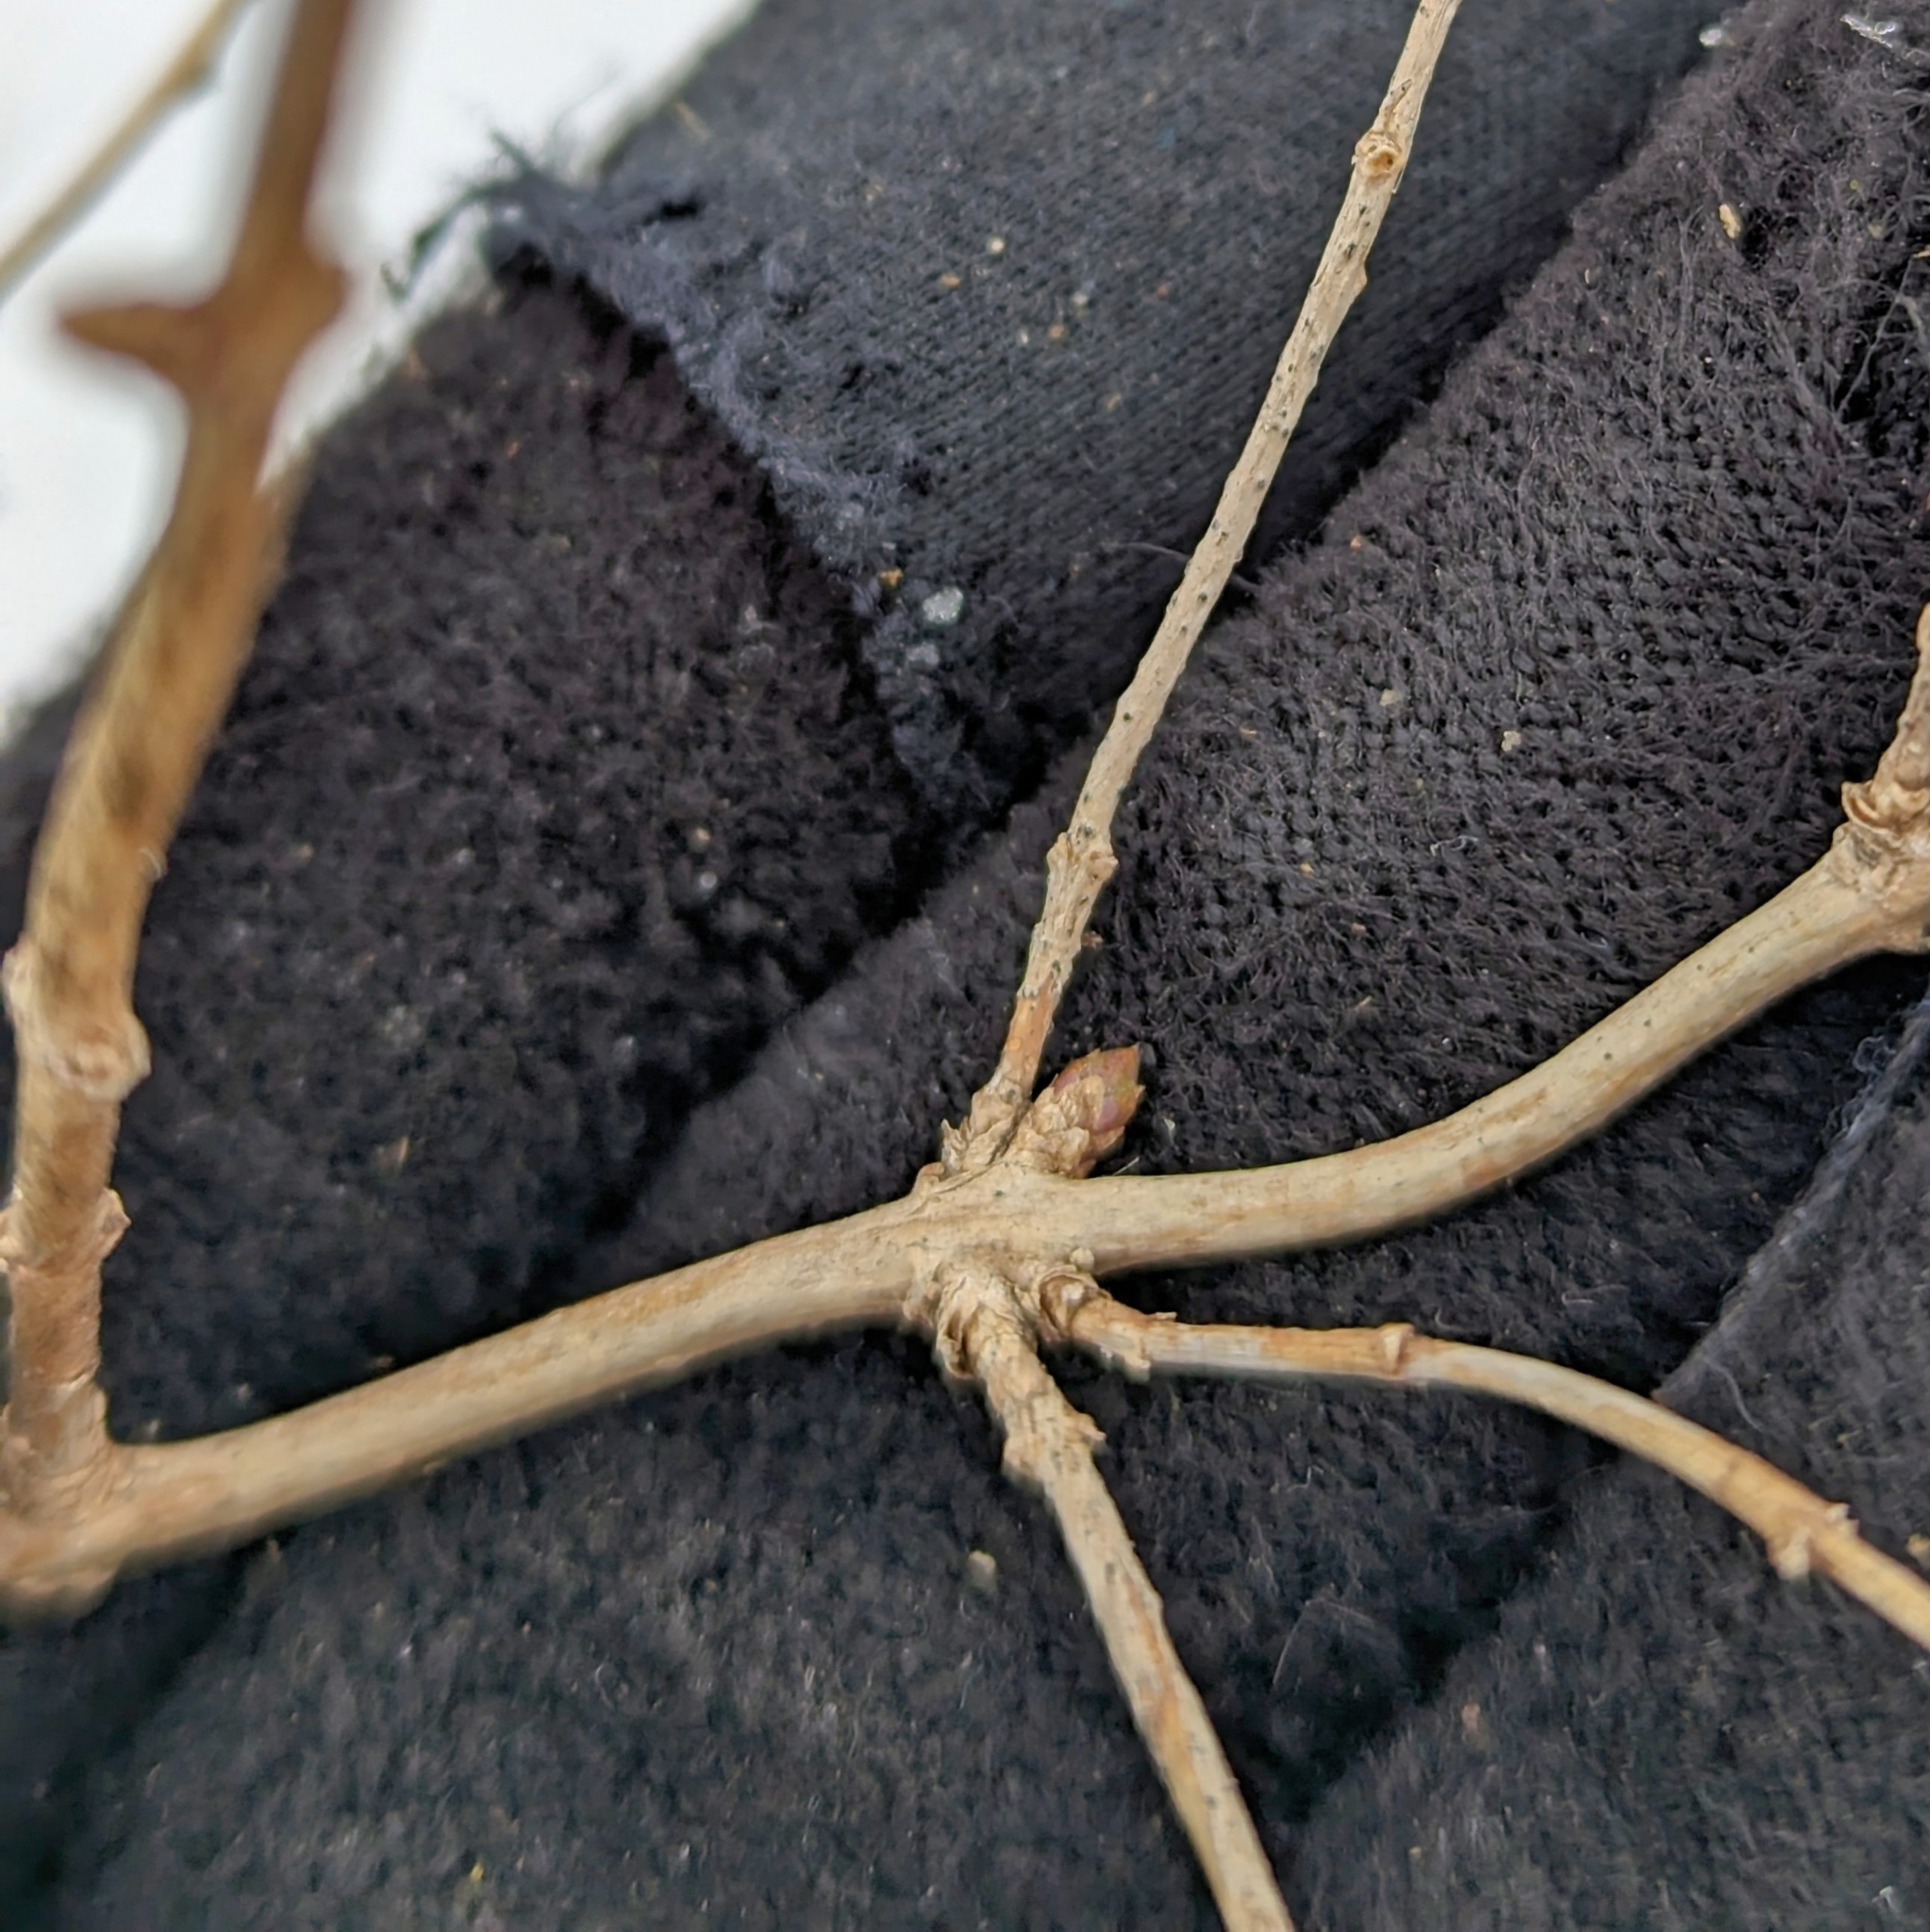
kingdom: Plantae
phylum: Tracheophyta
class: Magnoliopsida
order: Dipsacales
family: Caprifoliaceae
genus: Lonicera
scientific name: Lonicera
